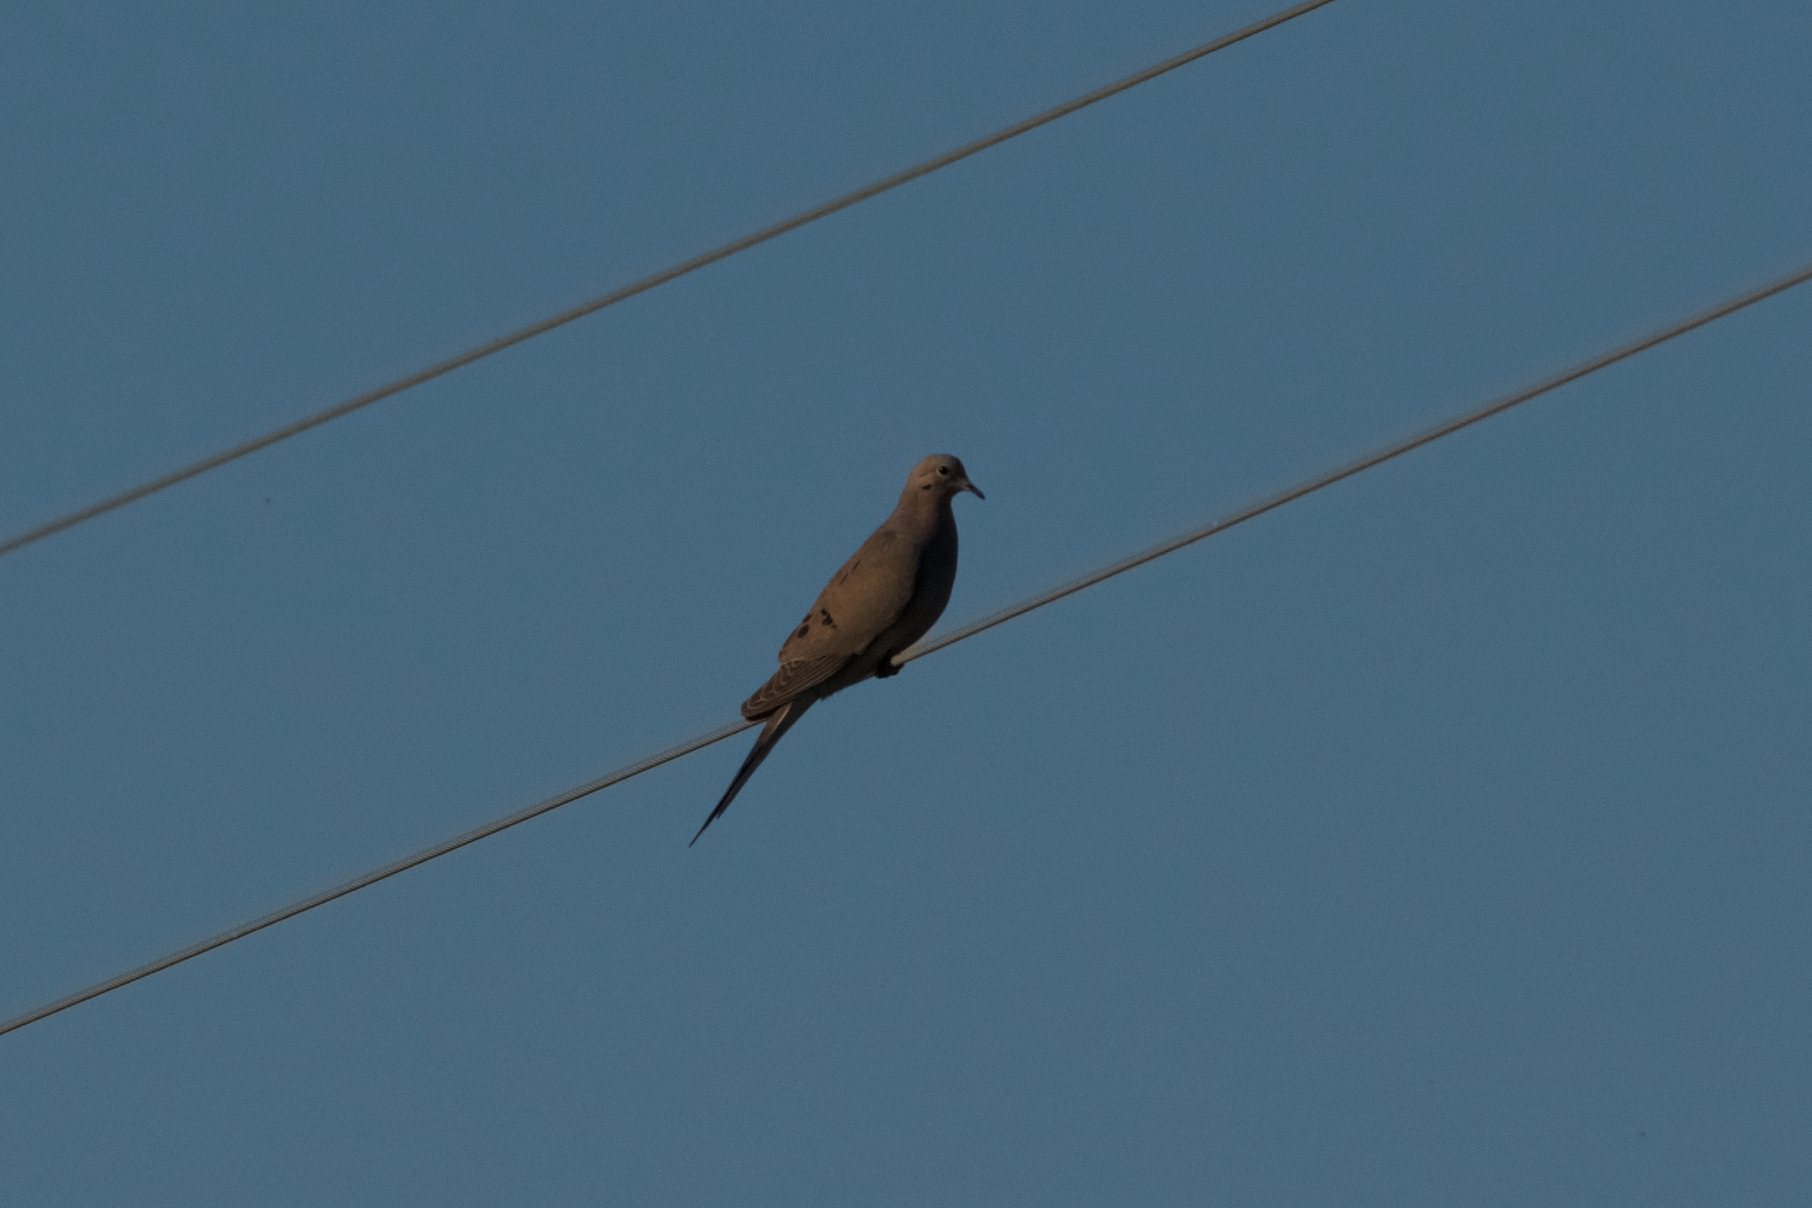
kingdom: Animalia
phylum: Chordata
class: Aves
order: Columbiformes
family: Columbidae
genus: Zenaida
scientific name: Zenaida macroura
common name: Mourning dove
